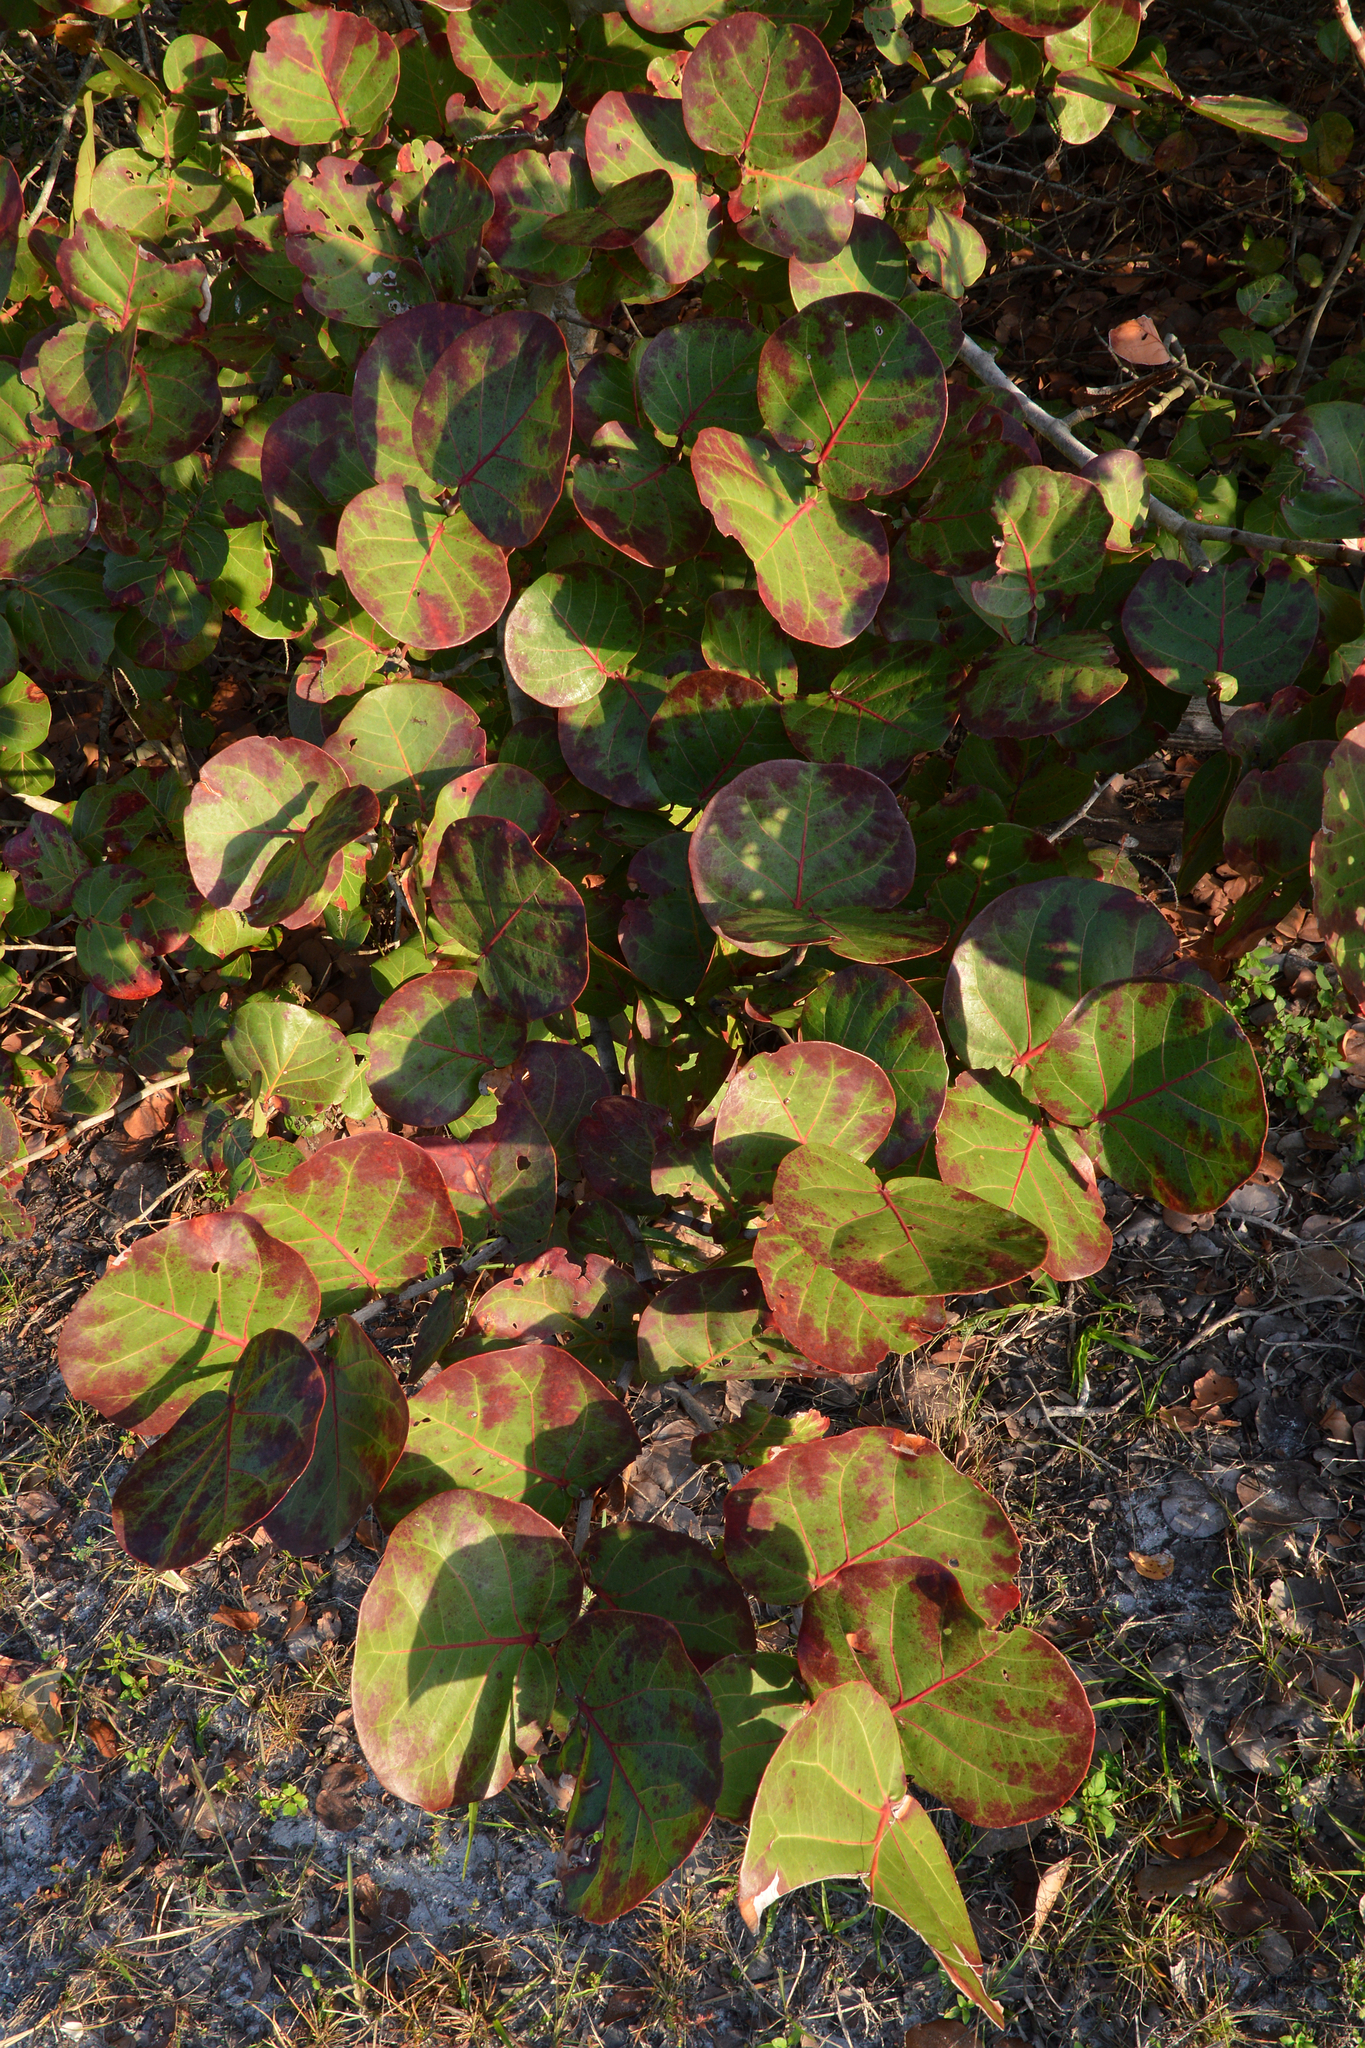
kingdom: Plantae
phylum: Tracheophyta
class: Magnoliopsida
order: Caryophyllales
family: Polygonaceae
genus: Coccoloba
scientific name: Coccoloba uvifera
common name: Seagrape
